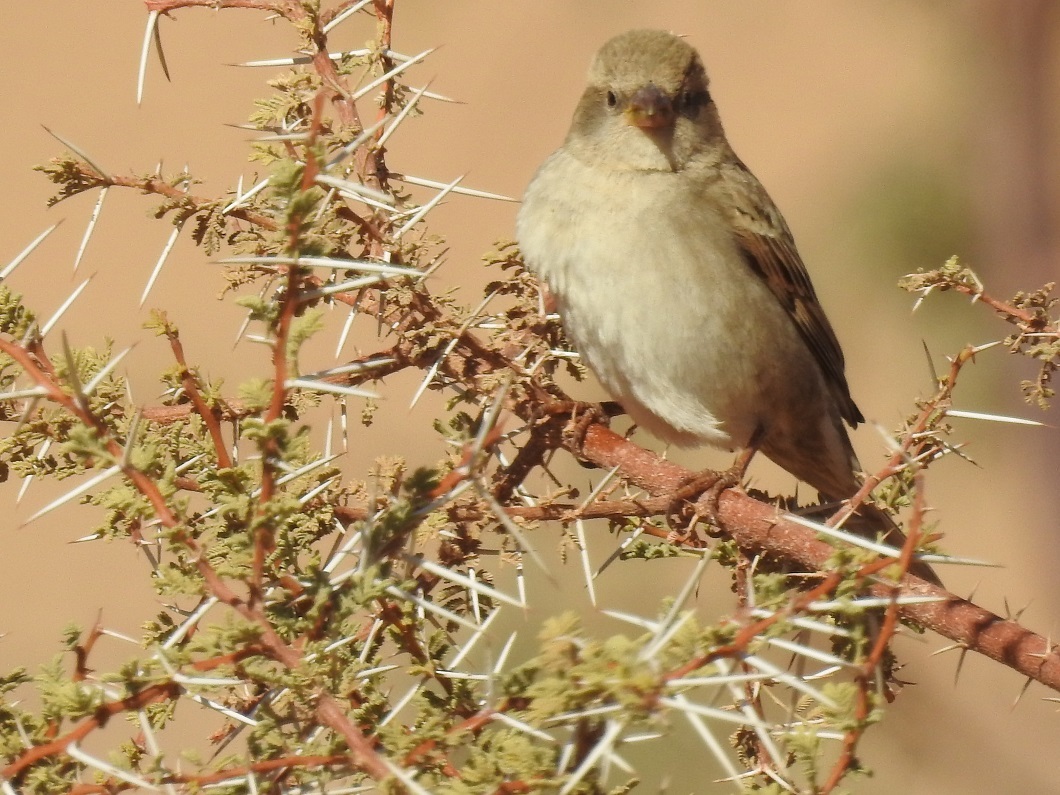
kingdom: Animalia
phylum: Chordata
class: Aves
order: Passeriformes
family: Passeridae
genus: Passer
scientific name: Passer domesticus
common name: House sparrow
